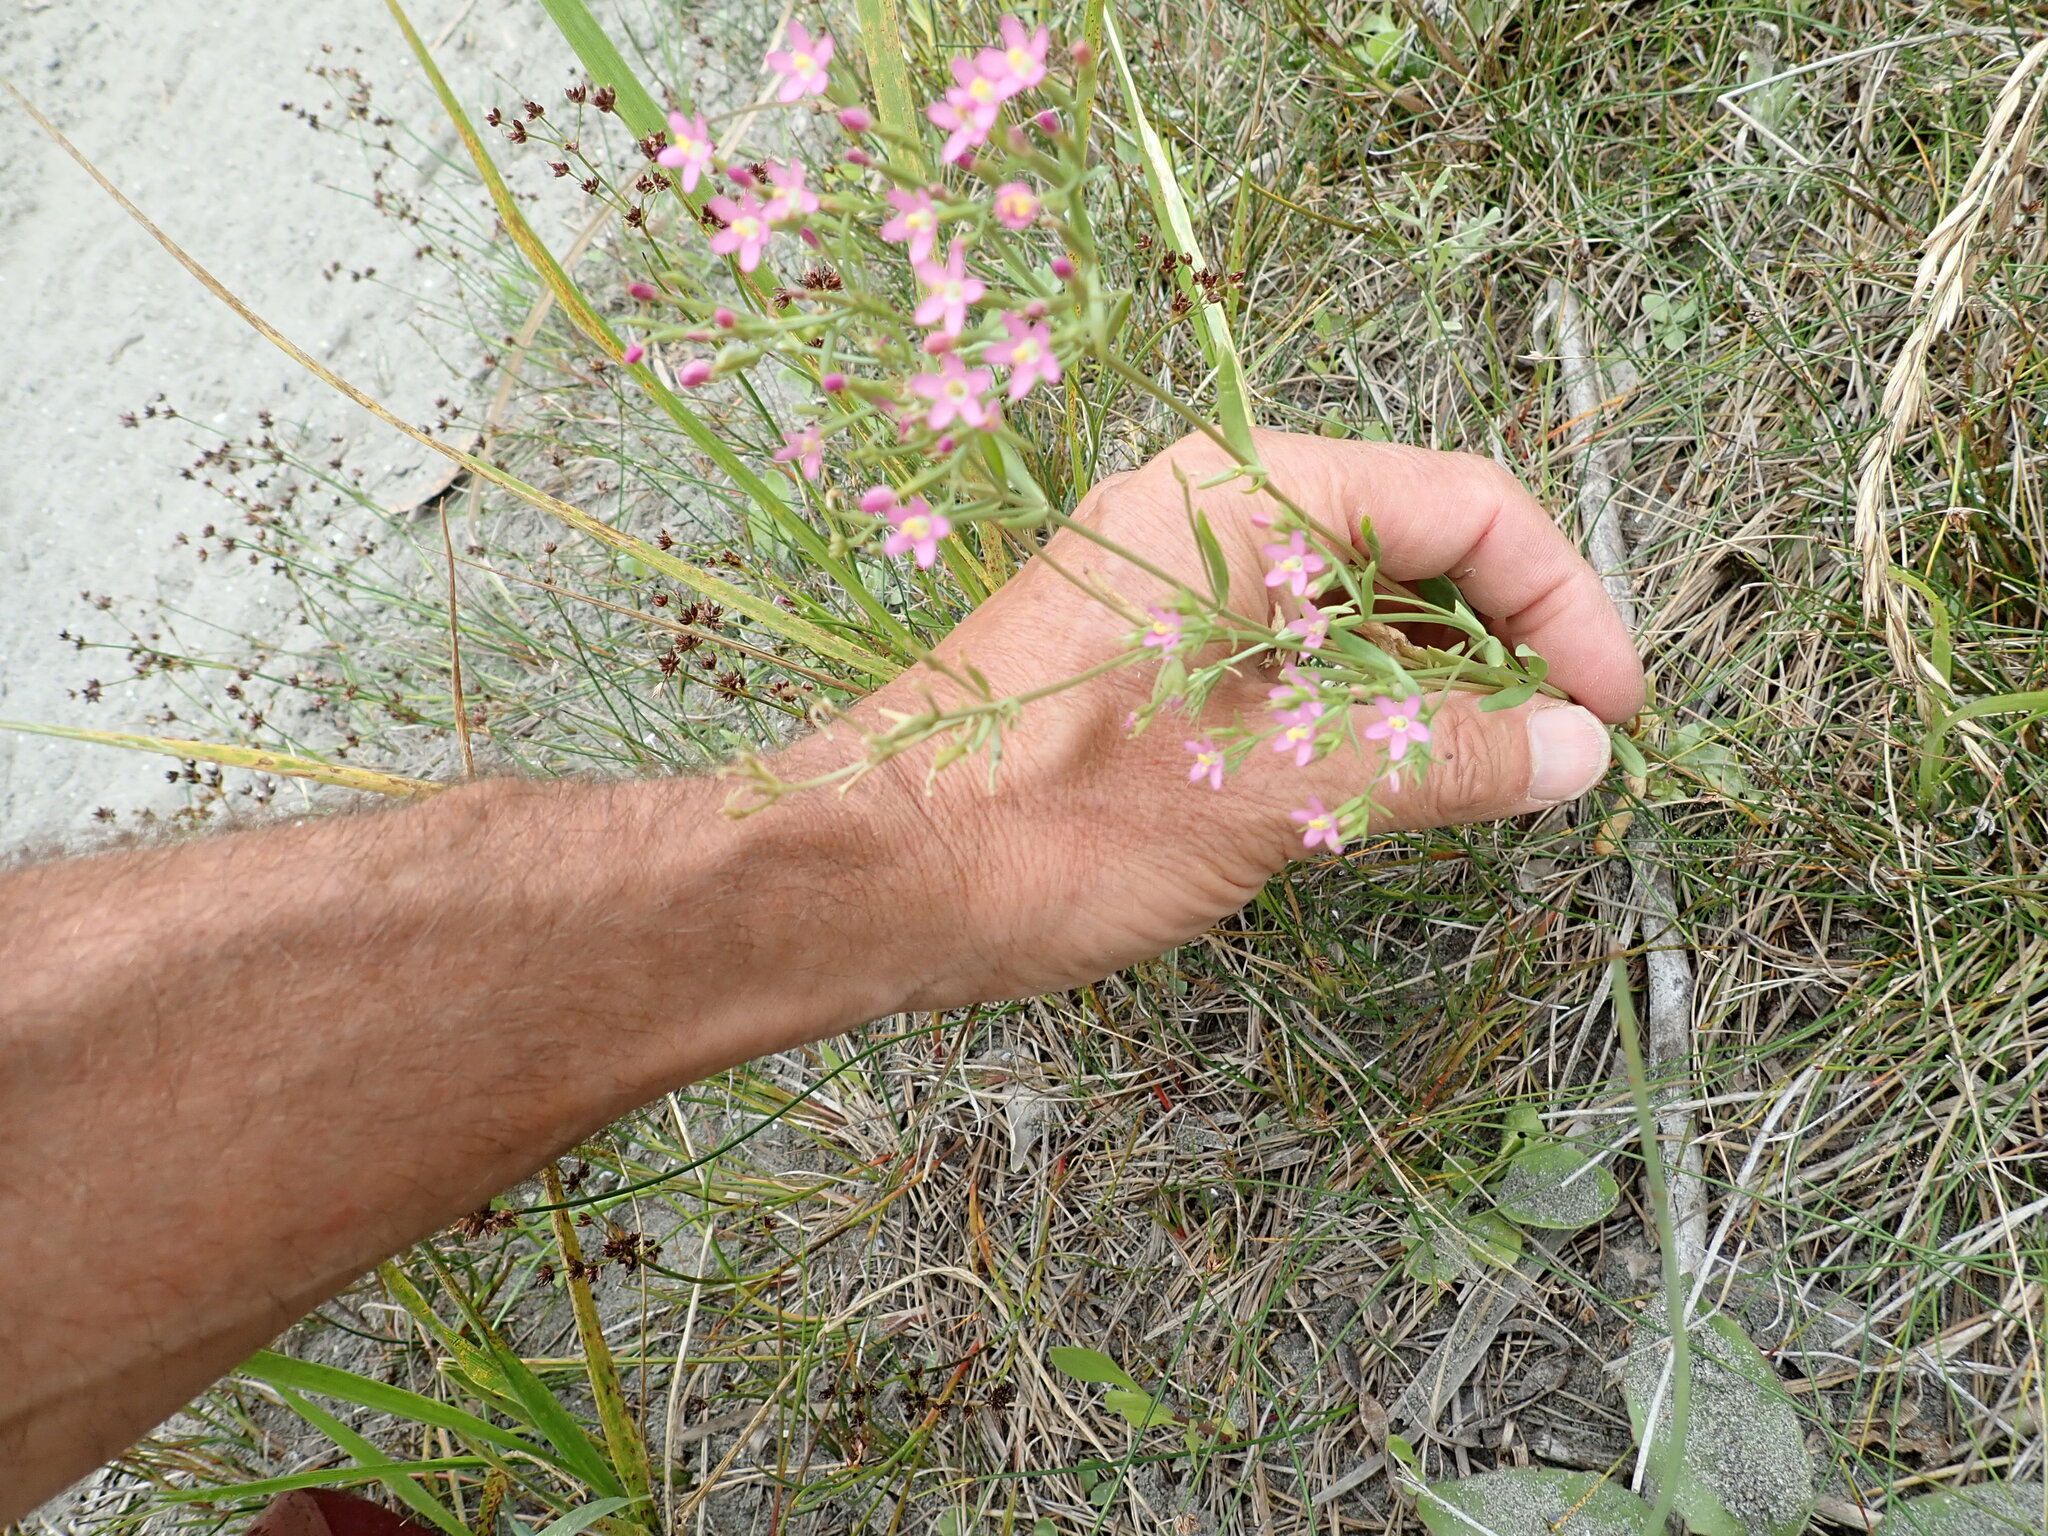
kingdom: Plantae
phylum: Tracheophyta
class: Magnoliopsida
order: Gentianales
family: Gentianaceae
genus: Centaurium
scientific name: Centaurium erythraea
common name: Common centaury
